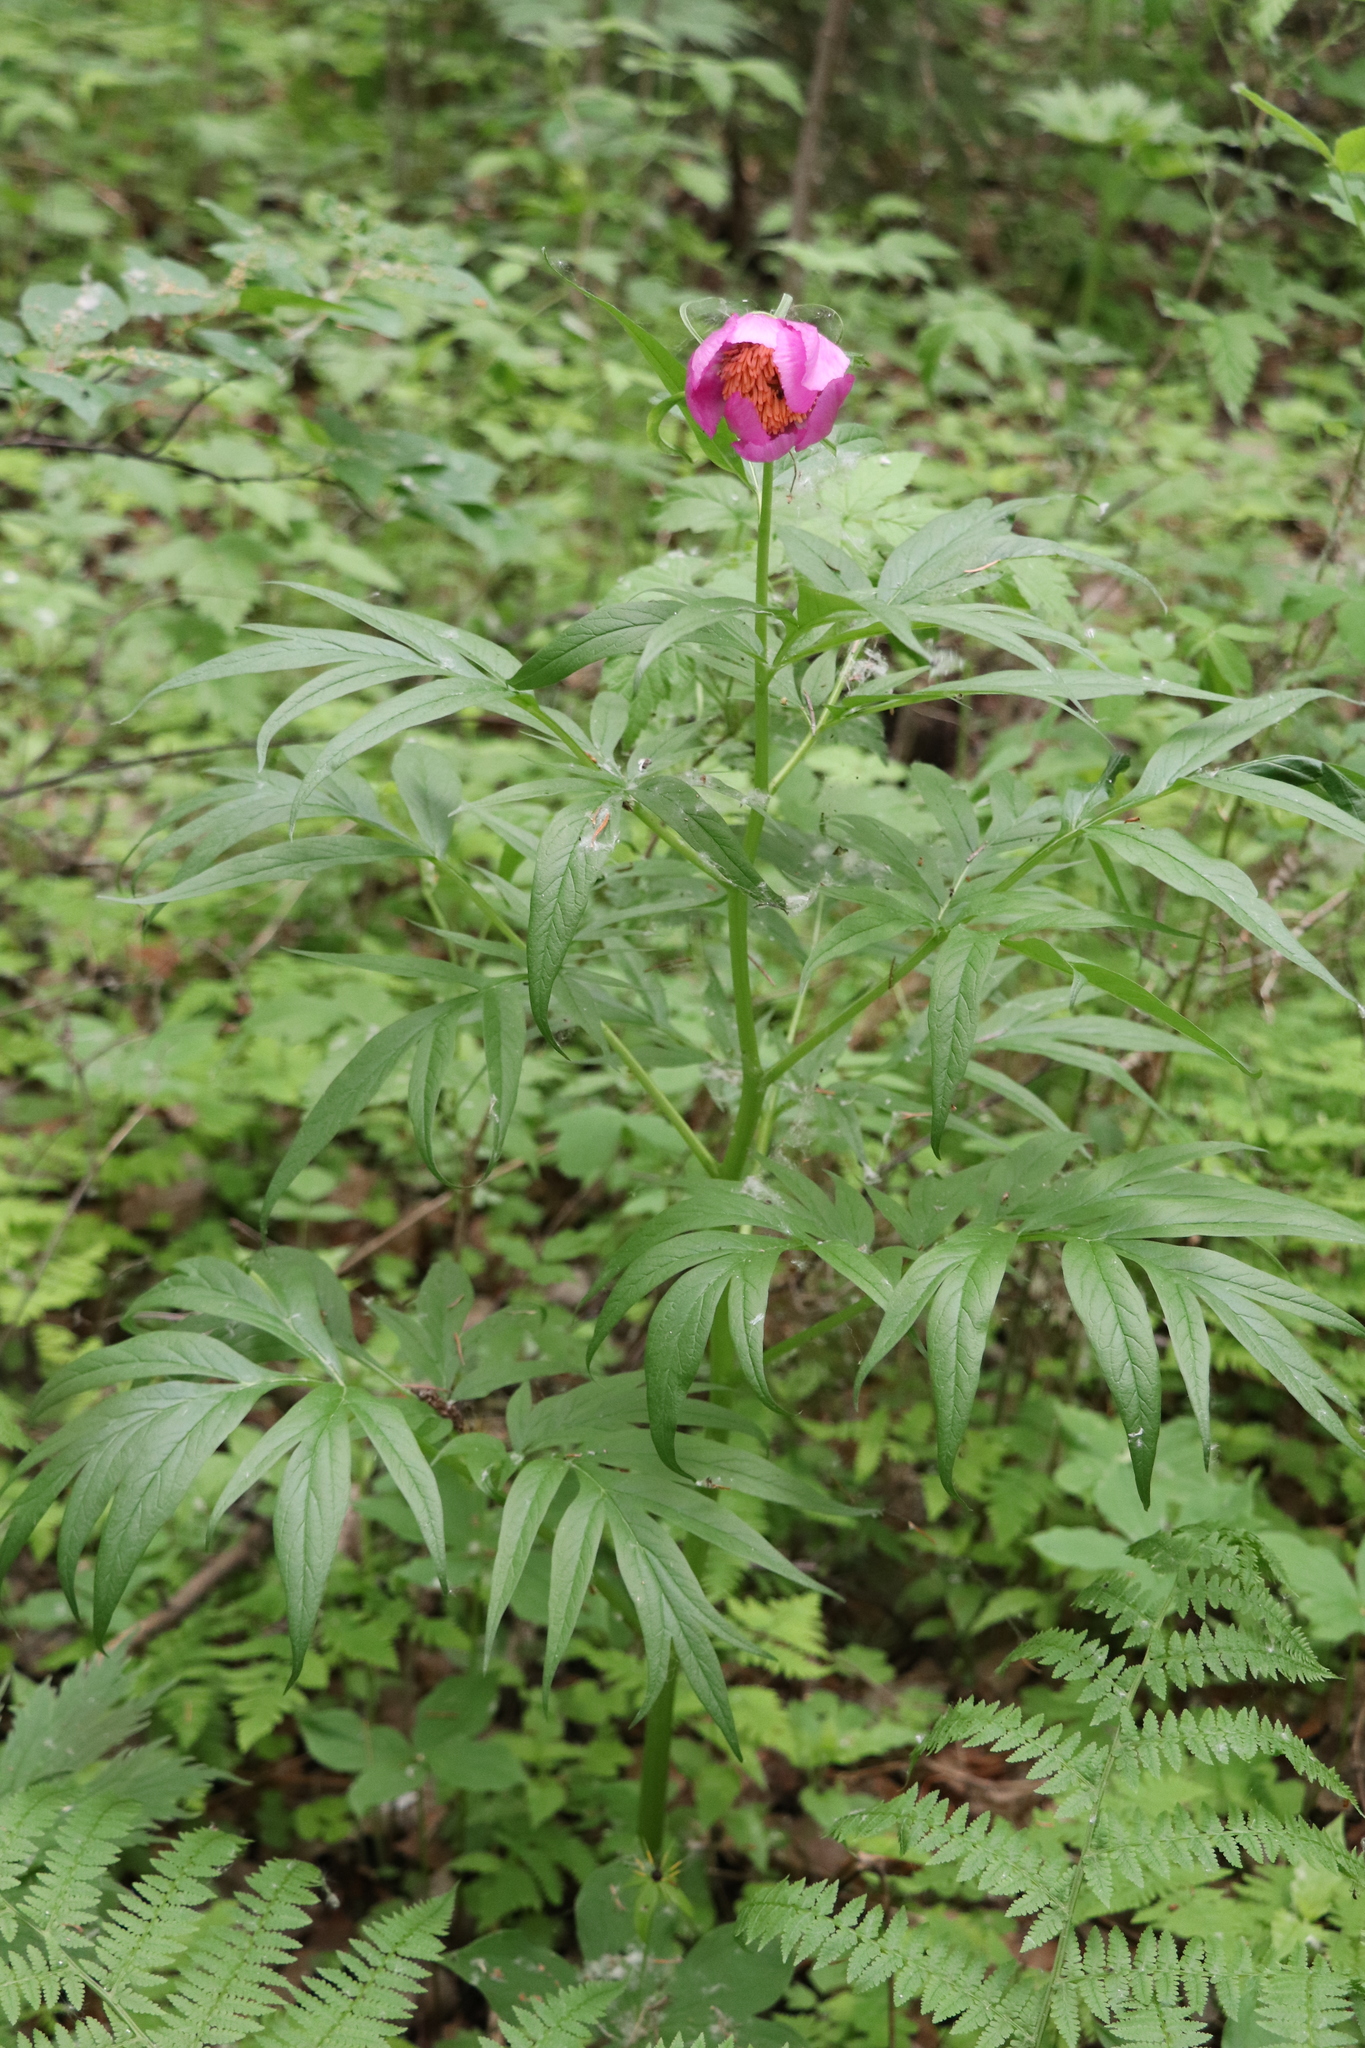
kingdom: Plantae
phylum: Tracheophyta
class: Magnoliopsida
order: Saxifragales
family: Paeoniaceae
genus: Paeonia
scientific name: Paeonia anomala
